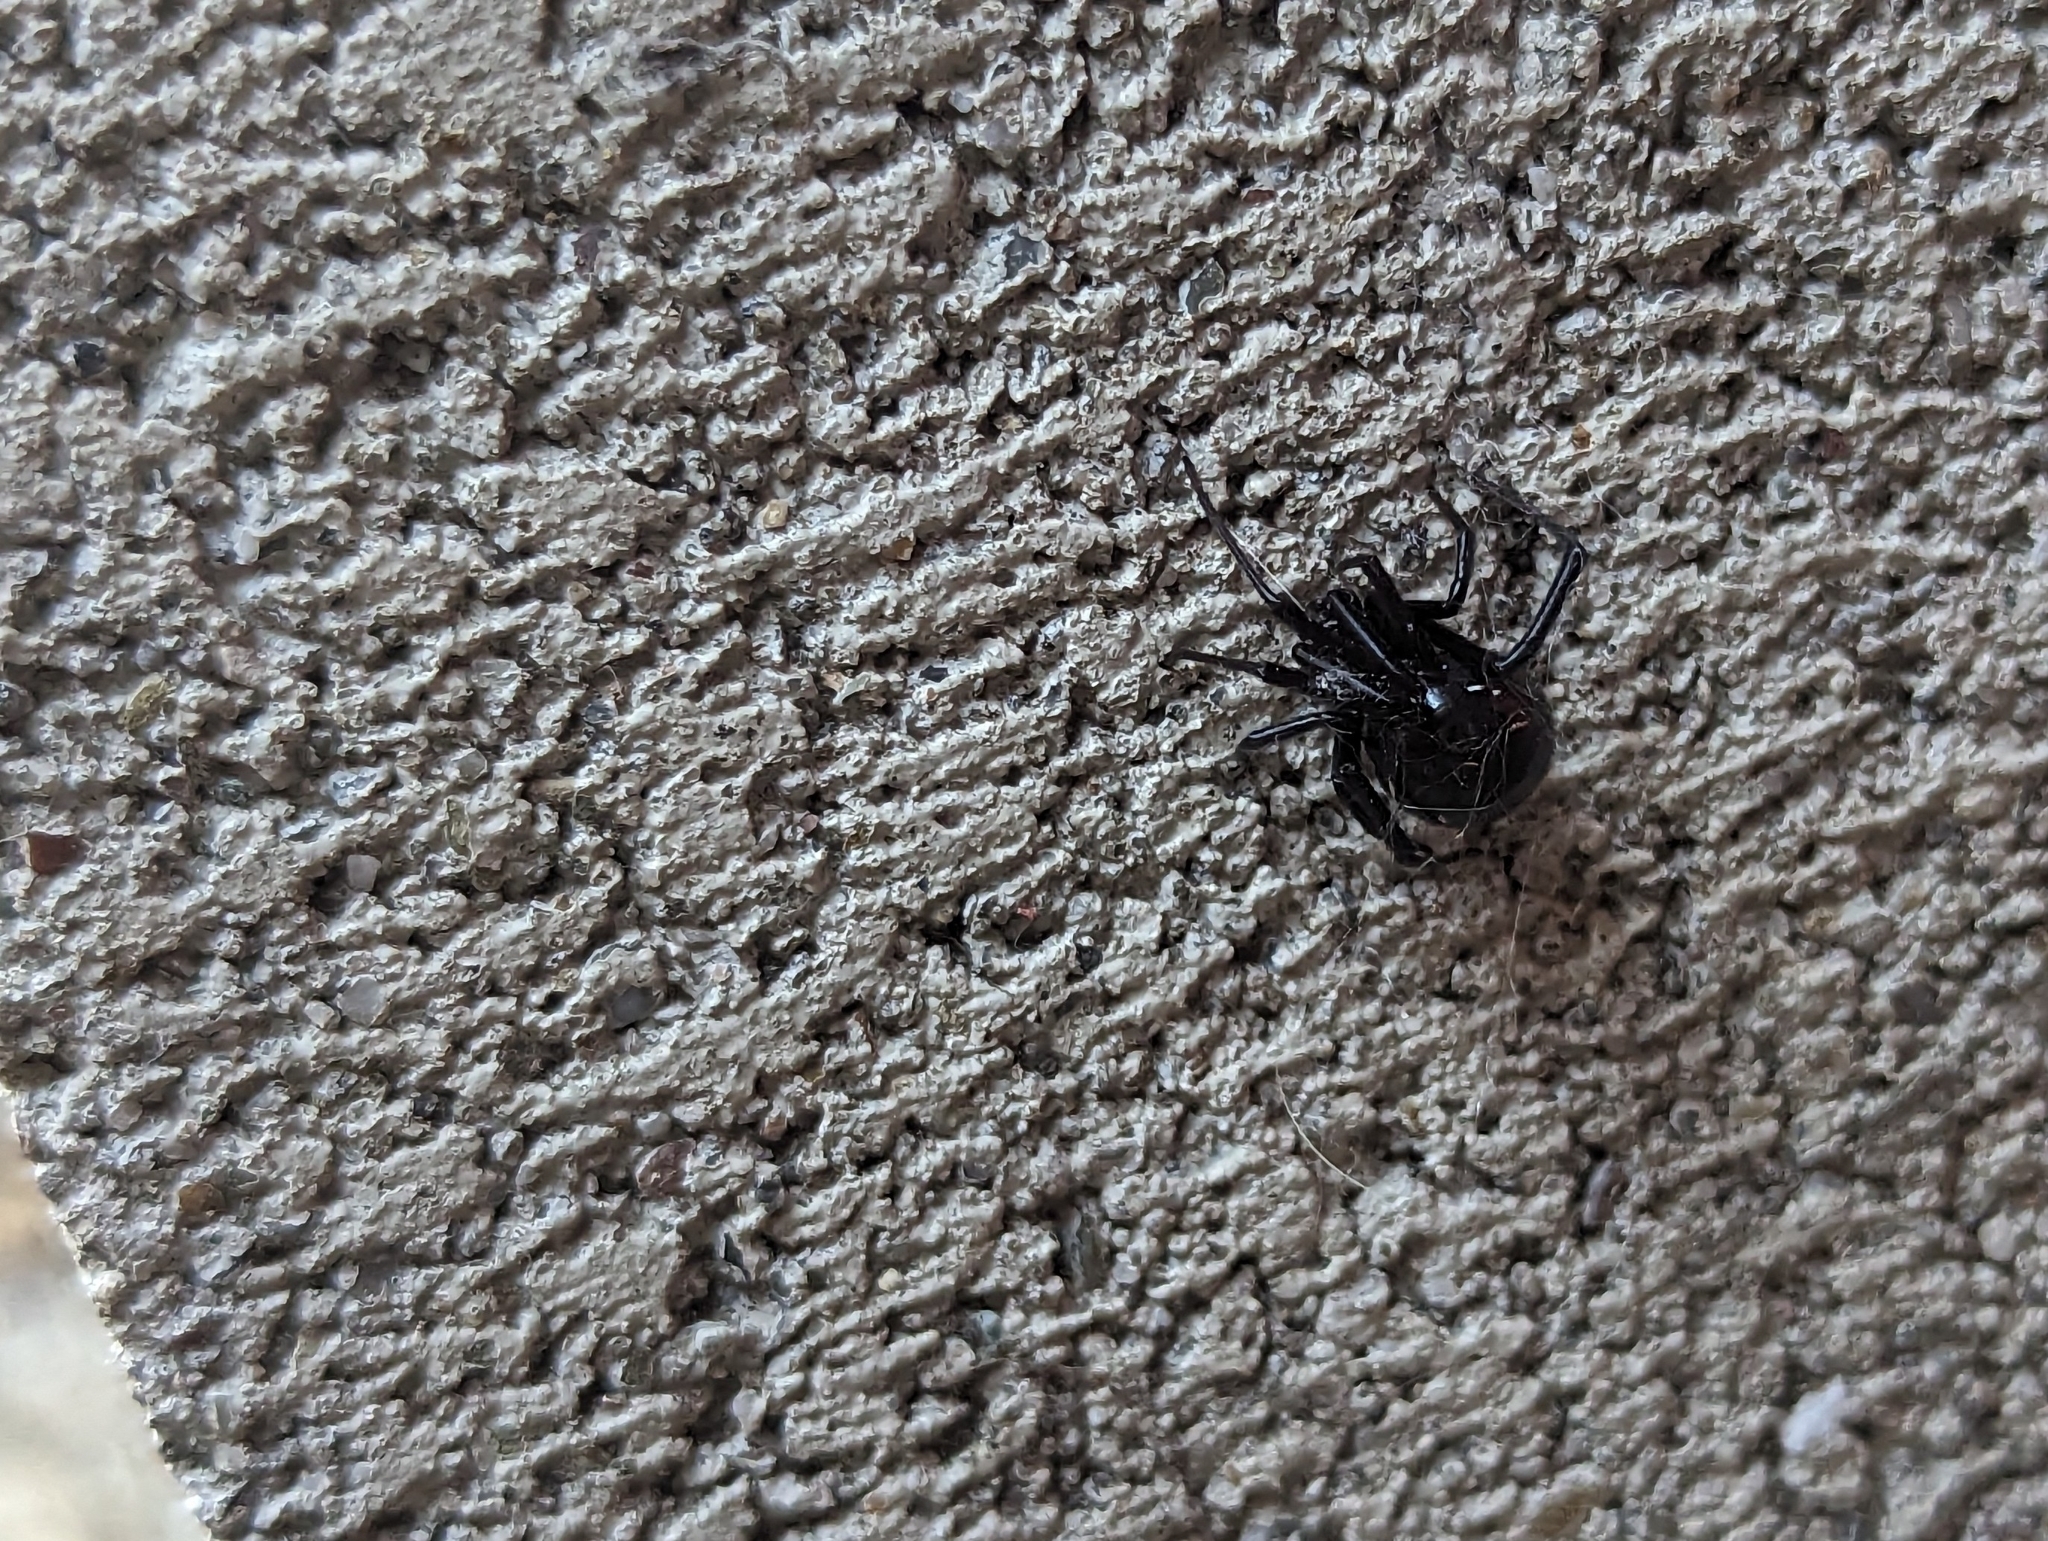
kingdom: Animalia
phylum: Arthropoda
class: Arachnida
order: Araneae
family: Theridiidae
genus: Latrodectus
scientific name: Latrodectus hesperus
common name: Western black widow
